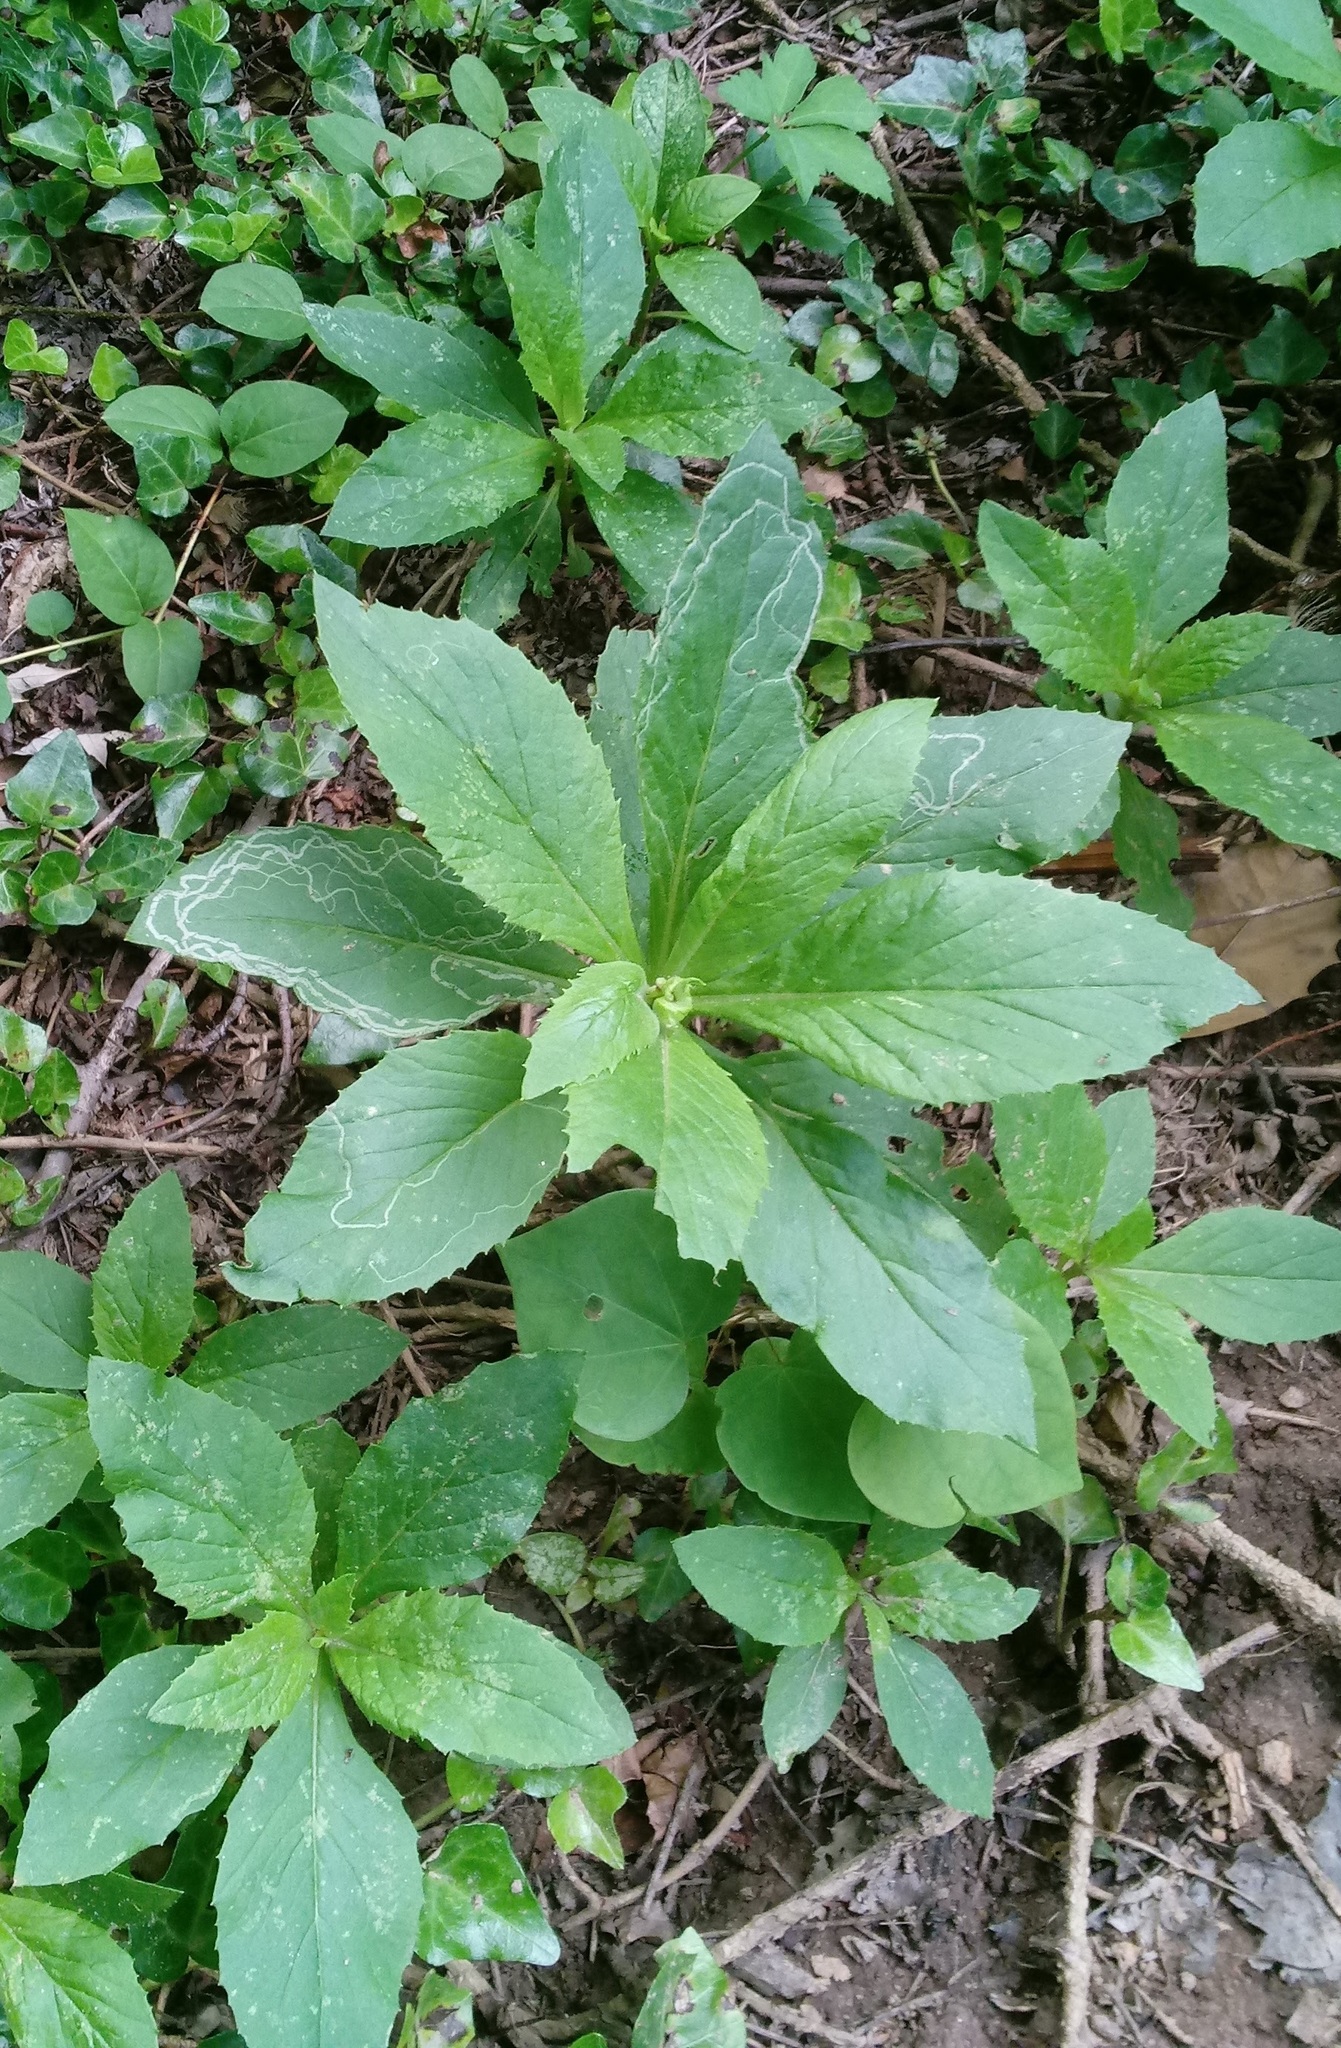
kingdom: Plantae
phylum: Tracheophyta
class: Magnoliopsida
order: Asterales
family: Asteraceae
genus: Erechtites
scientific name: Erechtites hieraciifolius
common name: American burnweed
